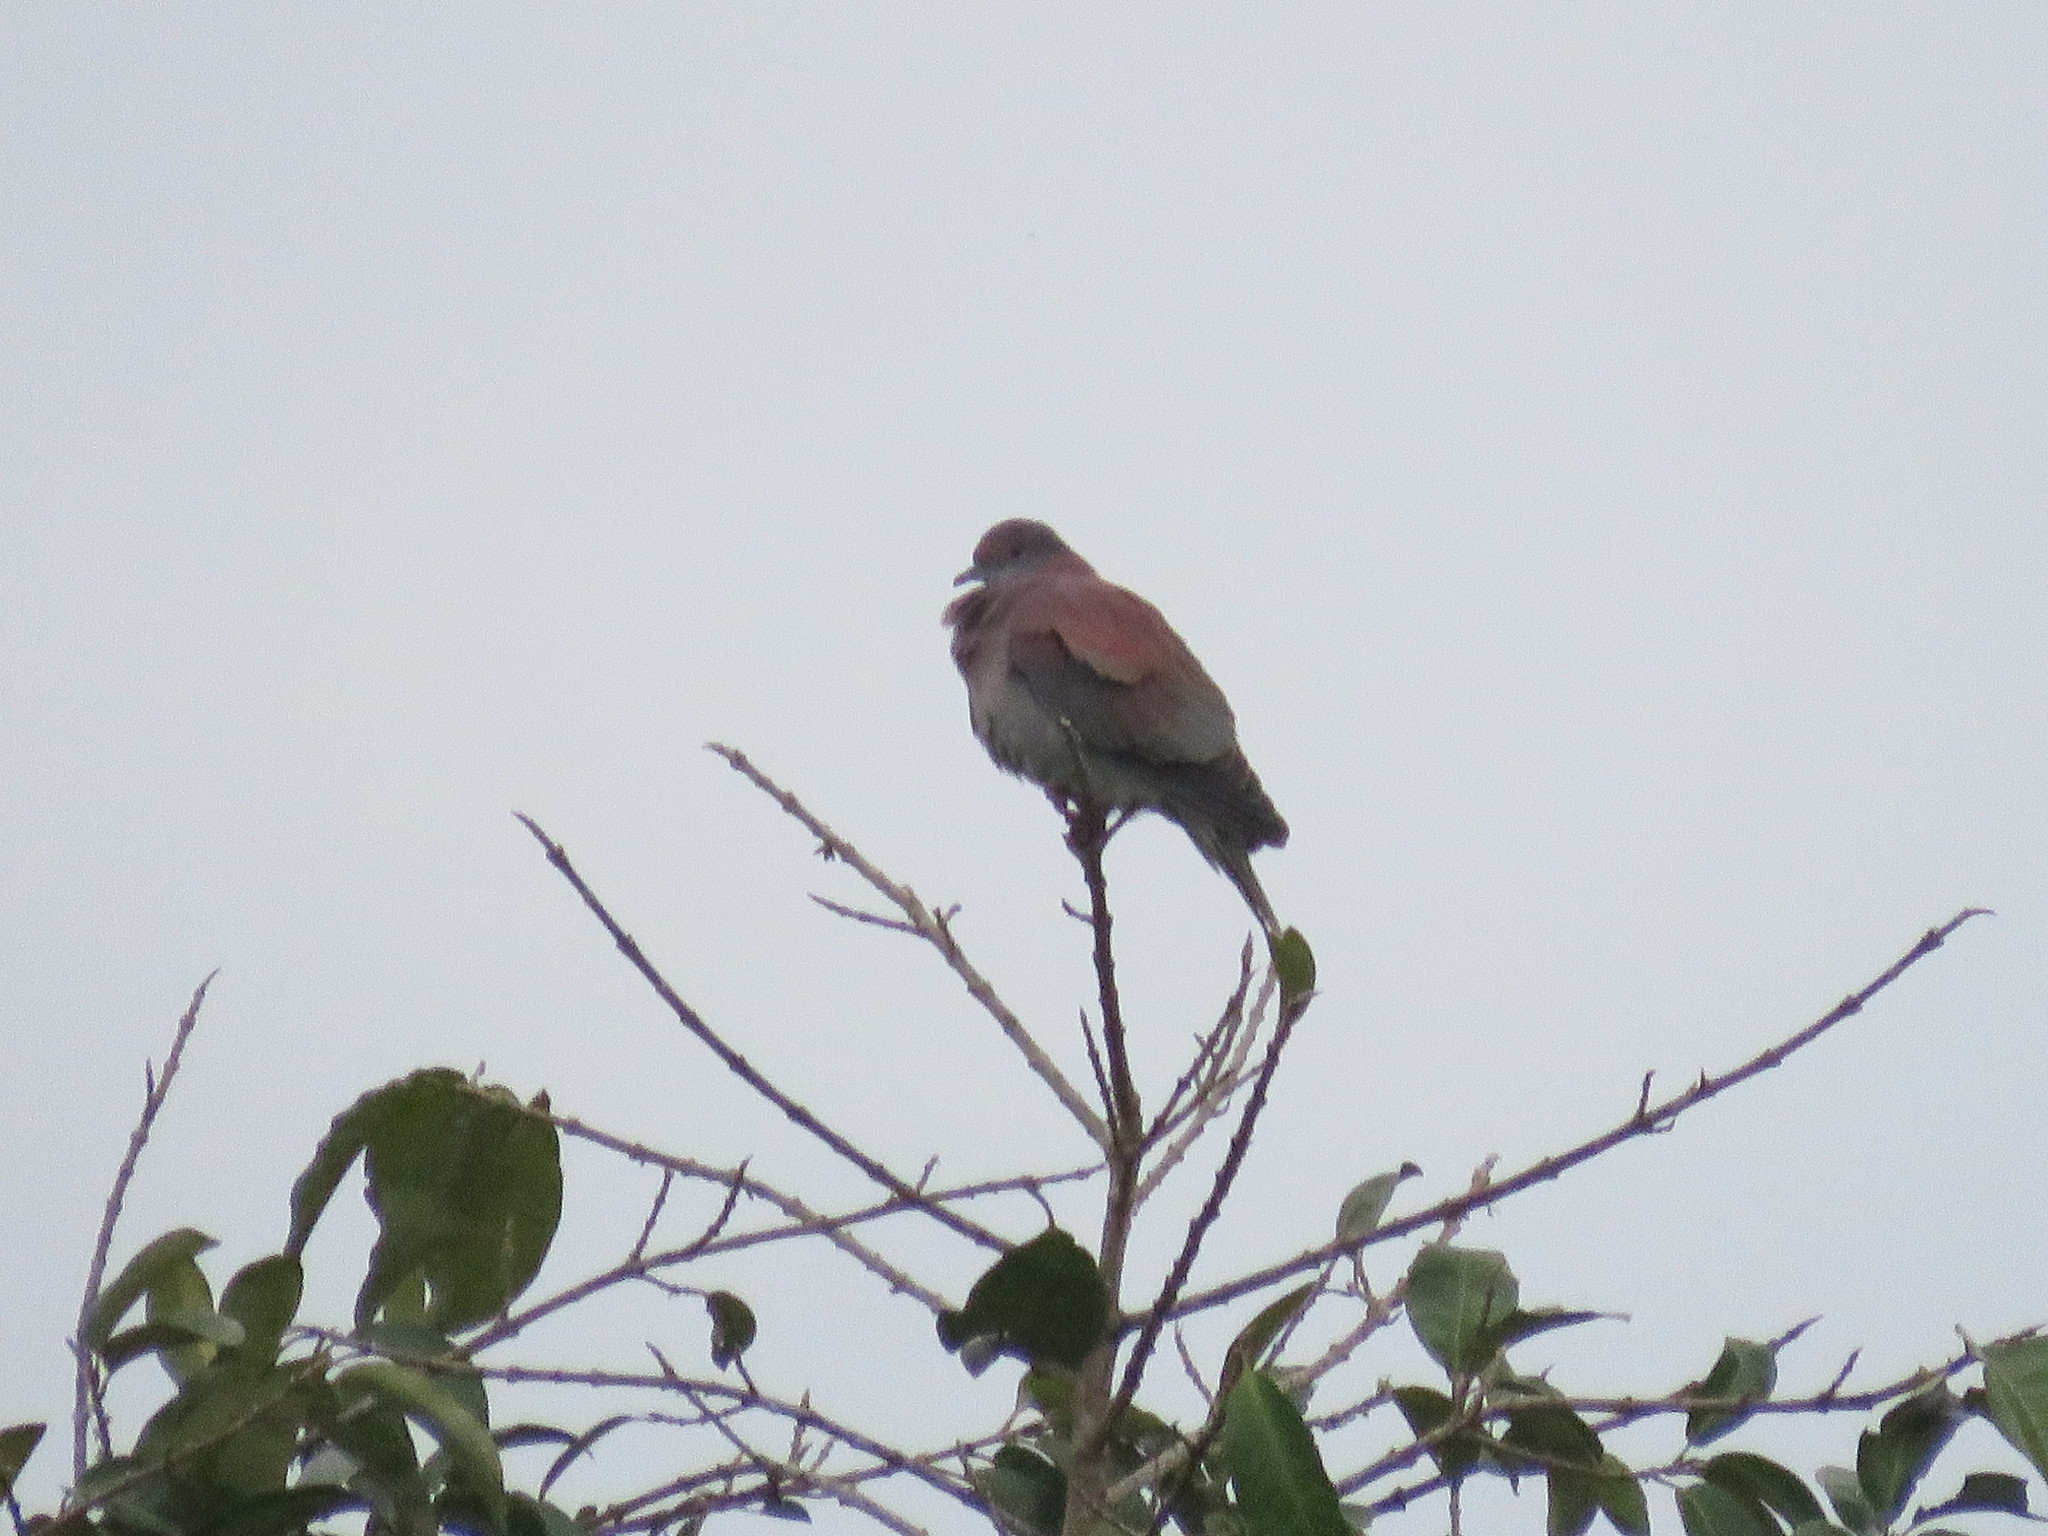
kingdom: Animalia
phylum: Chordata
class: Aves
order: Columbiformes
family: Columbidae
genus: Patagioenas
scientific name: Patagioenas cayennensis
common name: Pale-vented pigeon
